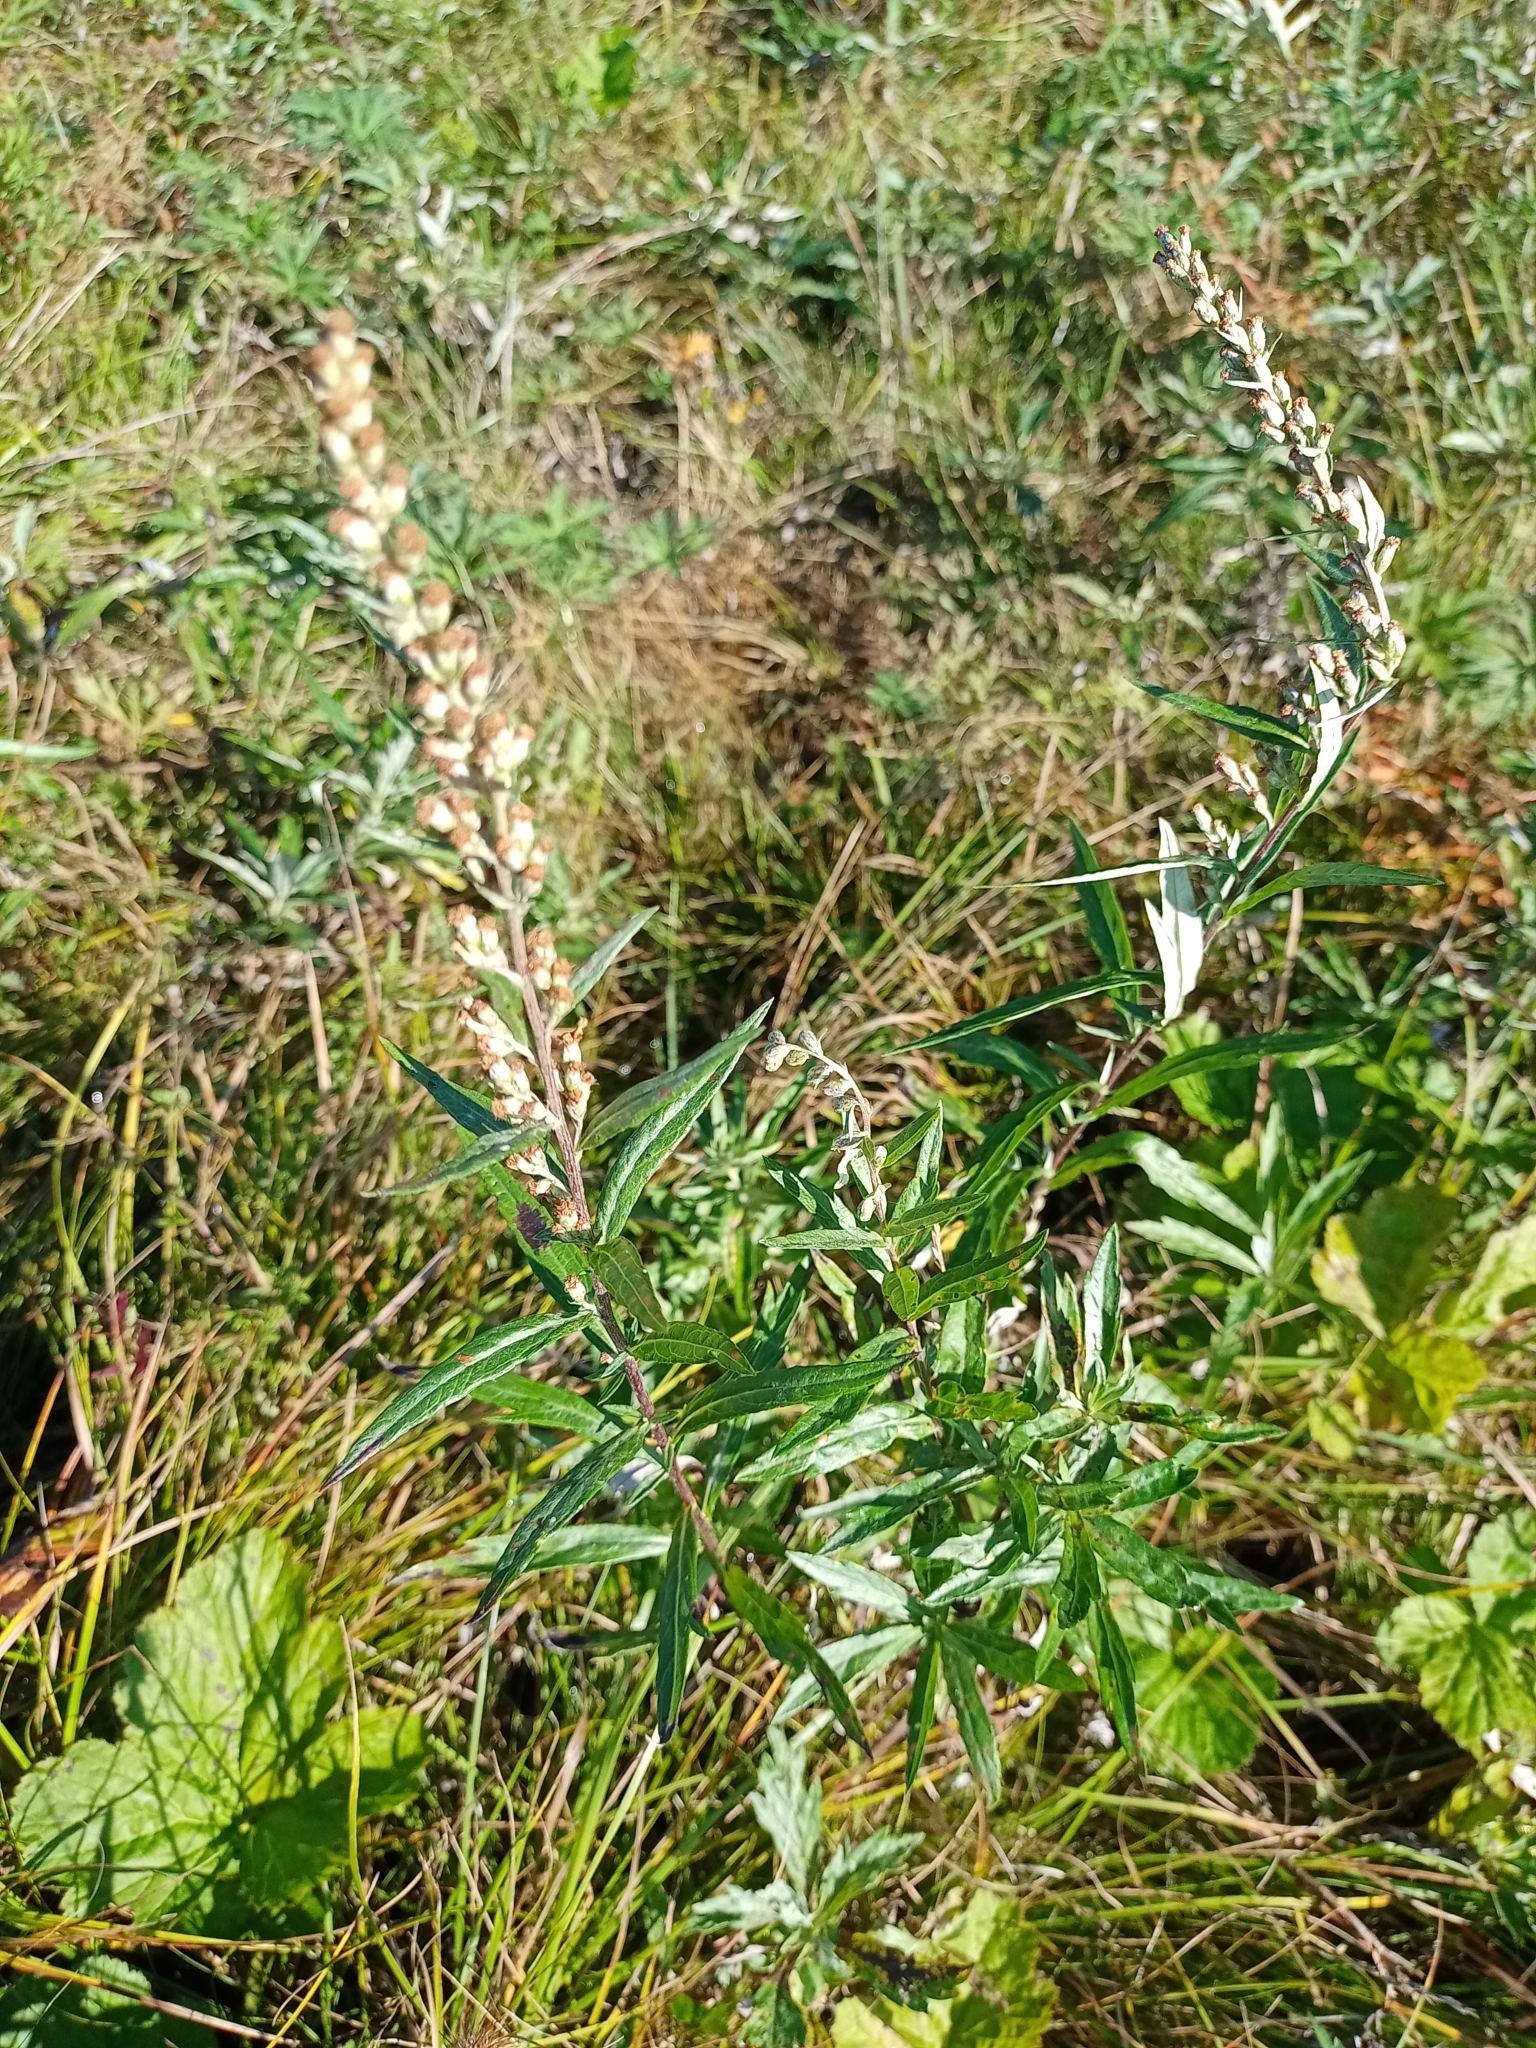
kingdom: Plantae
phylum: Tracheophyta
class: Magnoliopsida
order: Asterales
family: Asteraceae
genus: Artemisia
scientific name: Artemisia integrifolia
